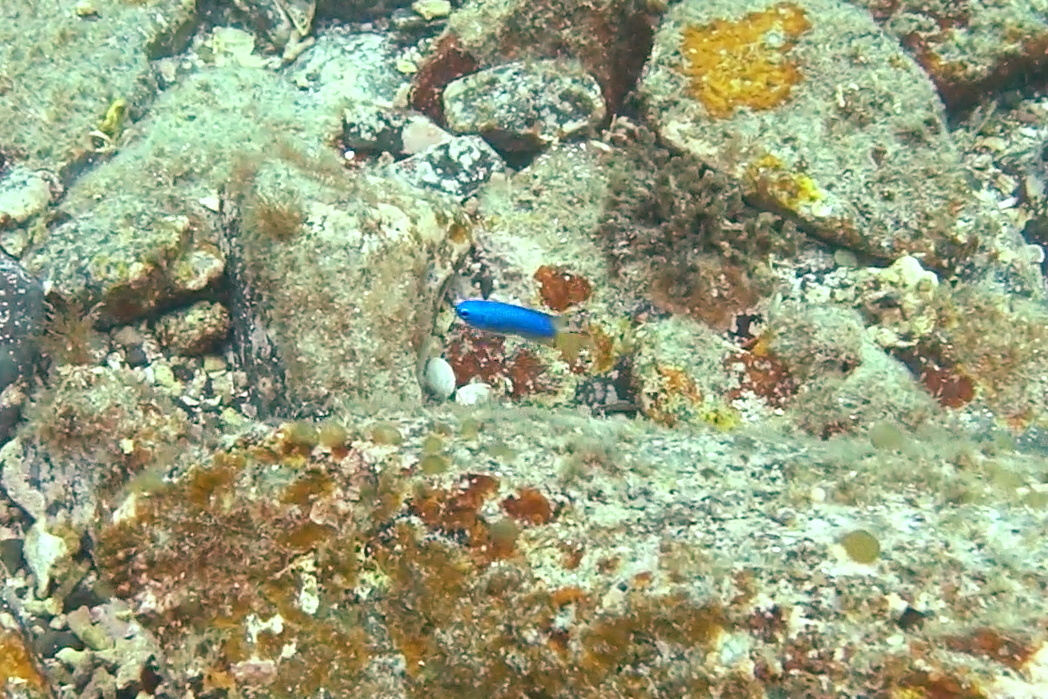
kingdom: Animalia
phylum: Chordata
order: Perciformes
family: Pomacentridae
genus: Pomacentrus
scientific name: Pomacentrus coelestis
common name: Neon damsel
